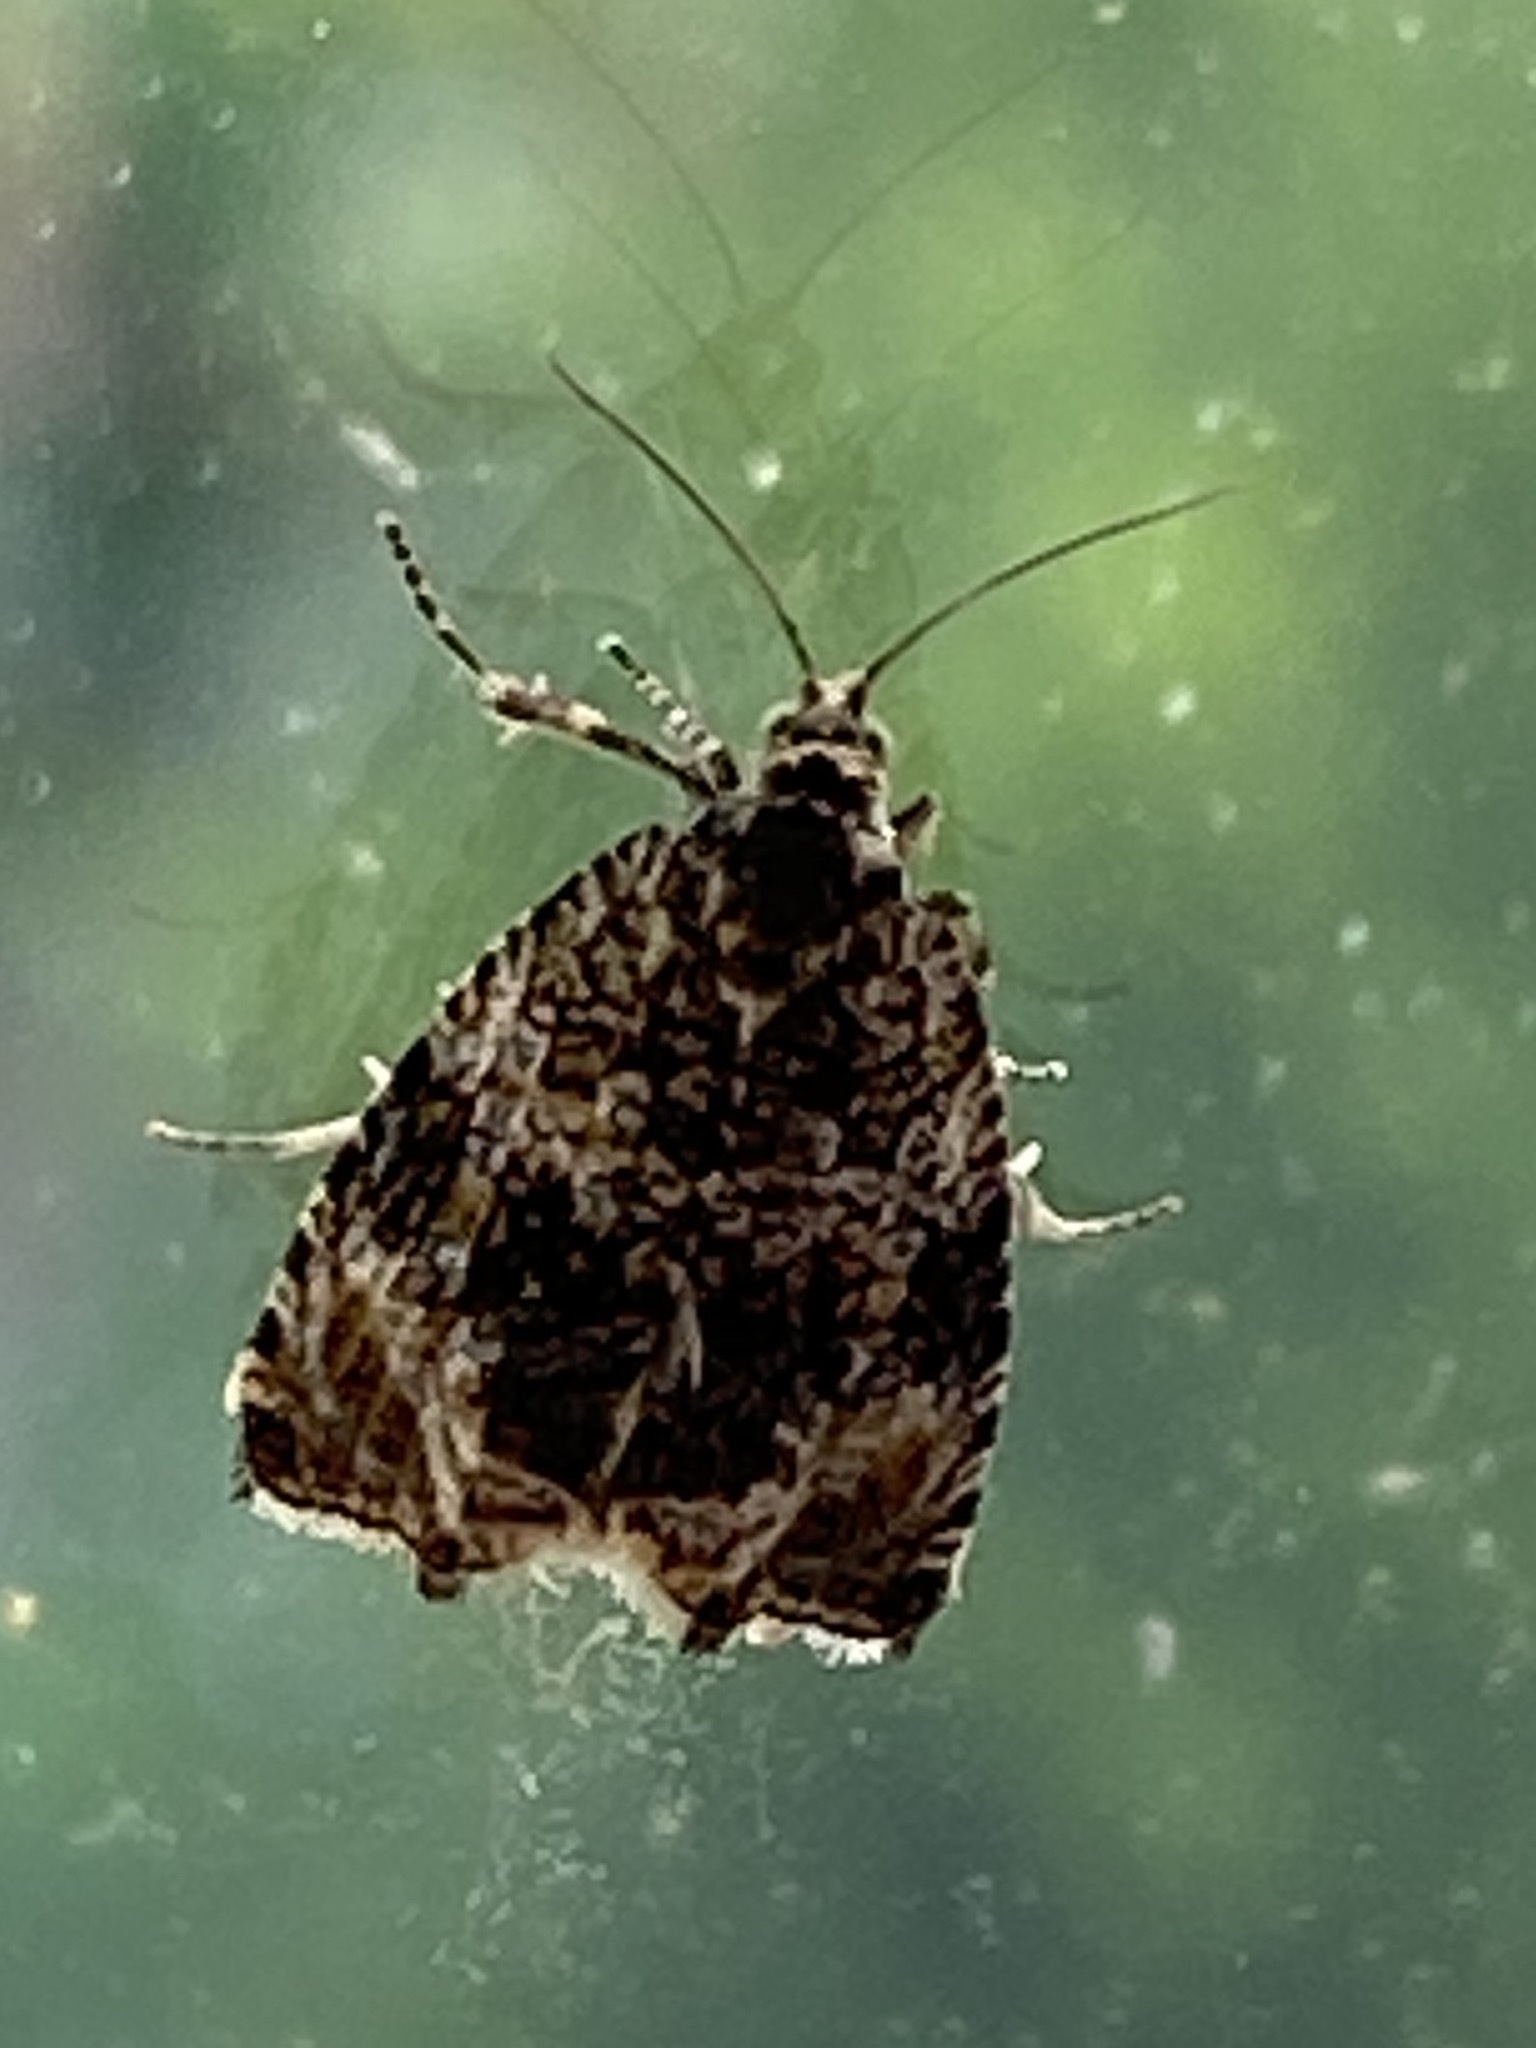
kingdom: Animalia
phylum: Arthropoda
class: Insecta
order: Lepidoptera
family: Tortricidae
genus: Syricoris
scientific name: Syricoris lacunana
